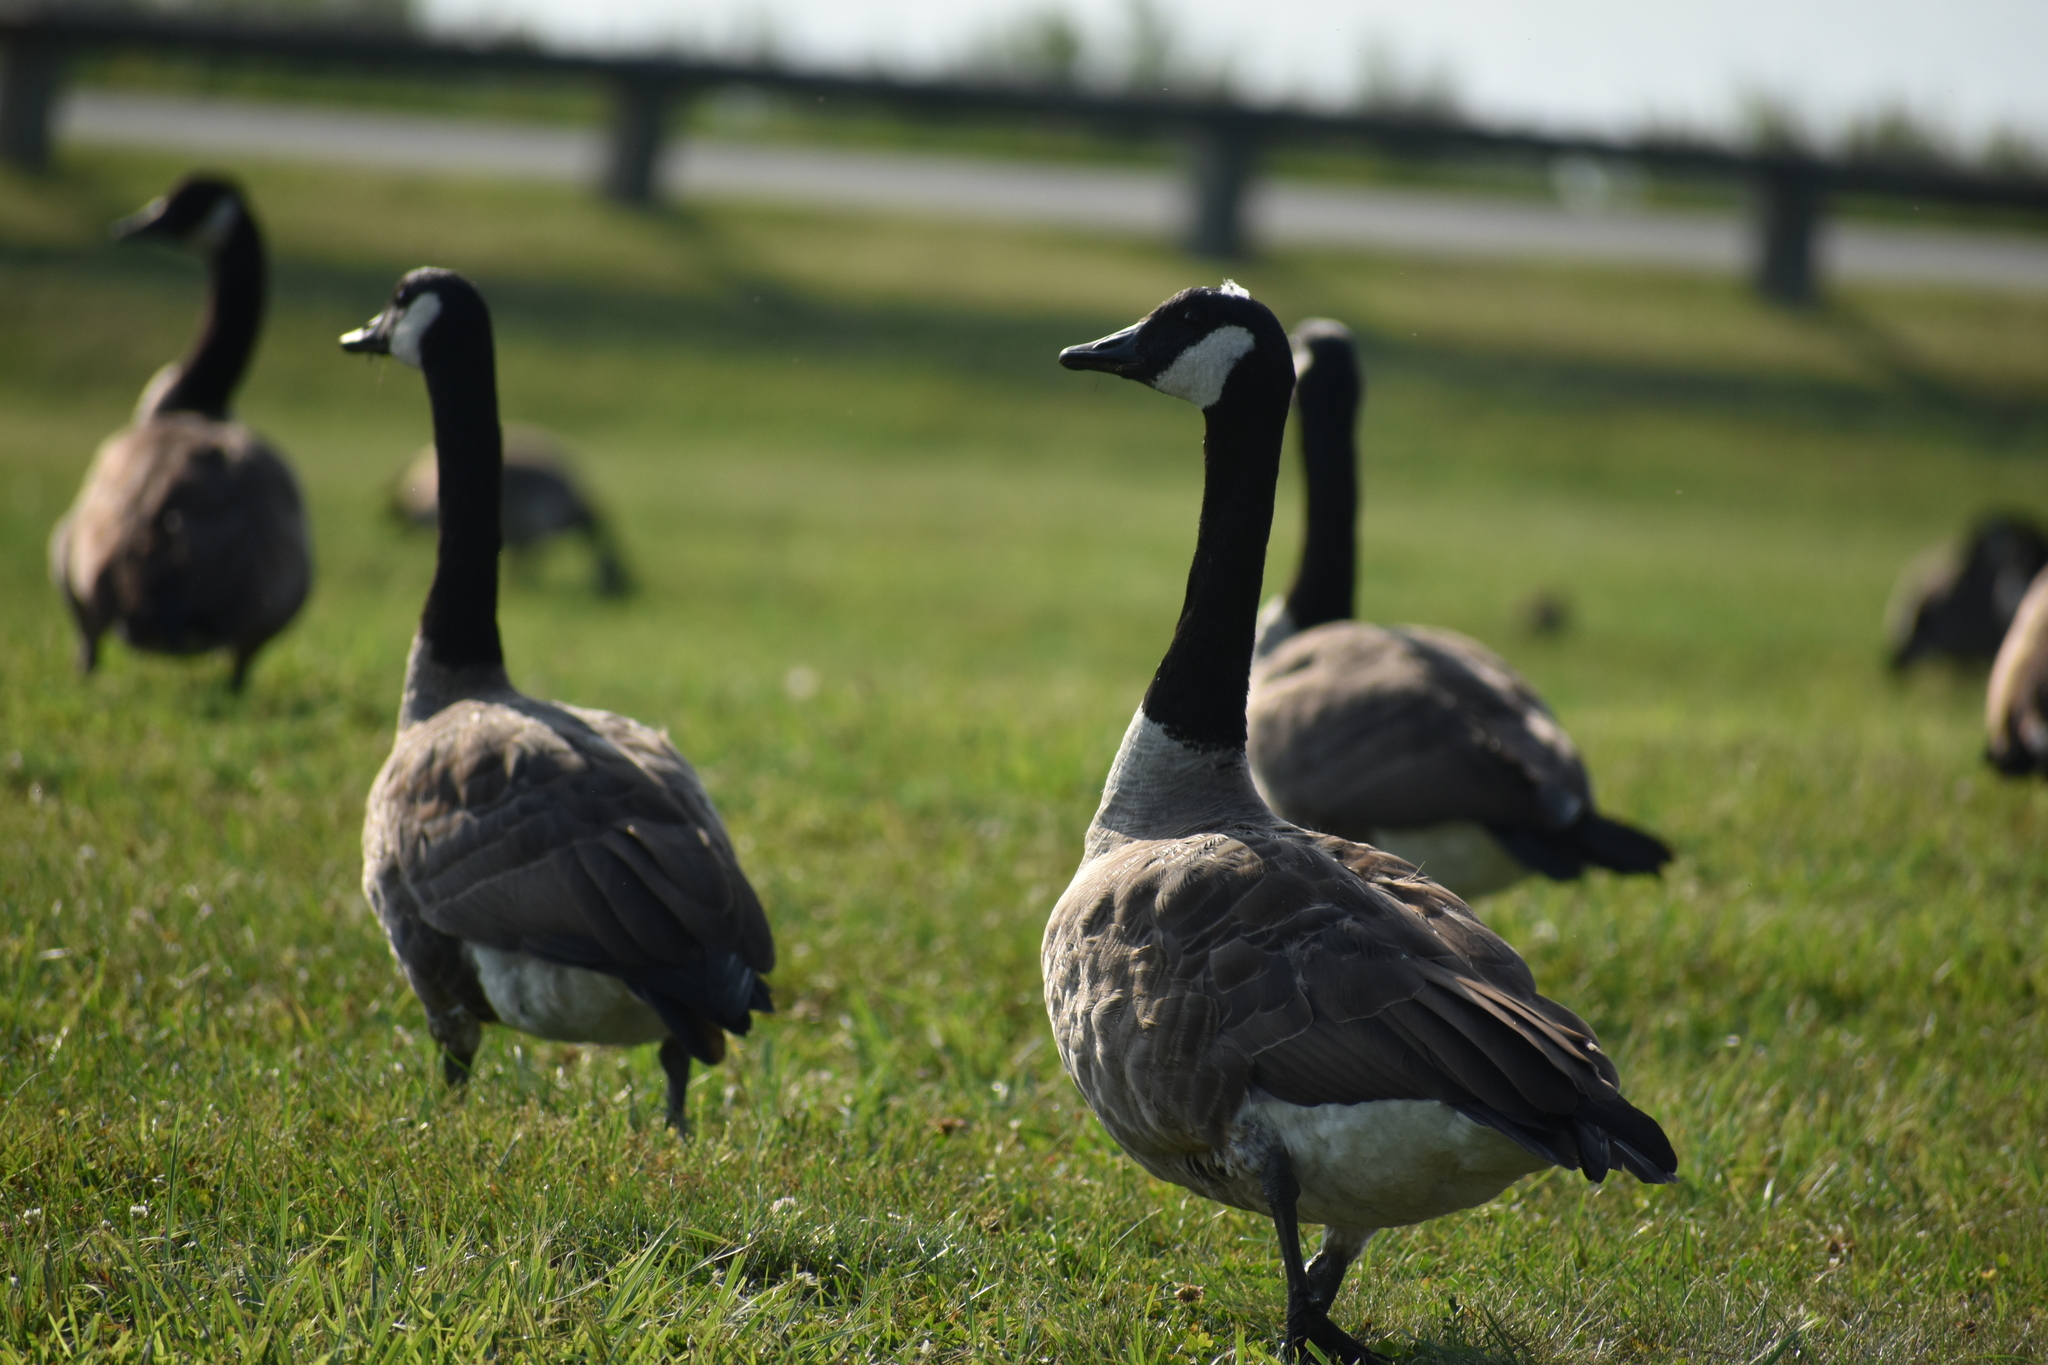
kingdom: Animalia
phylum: Chordata
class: Aves
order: Anseriformes
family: Anatidae
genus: Branta
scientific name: Branta canadensis
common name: Canada goose
